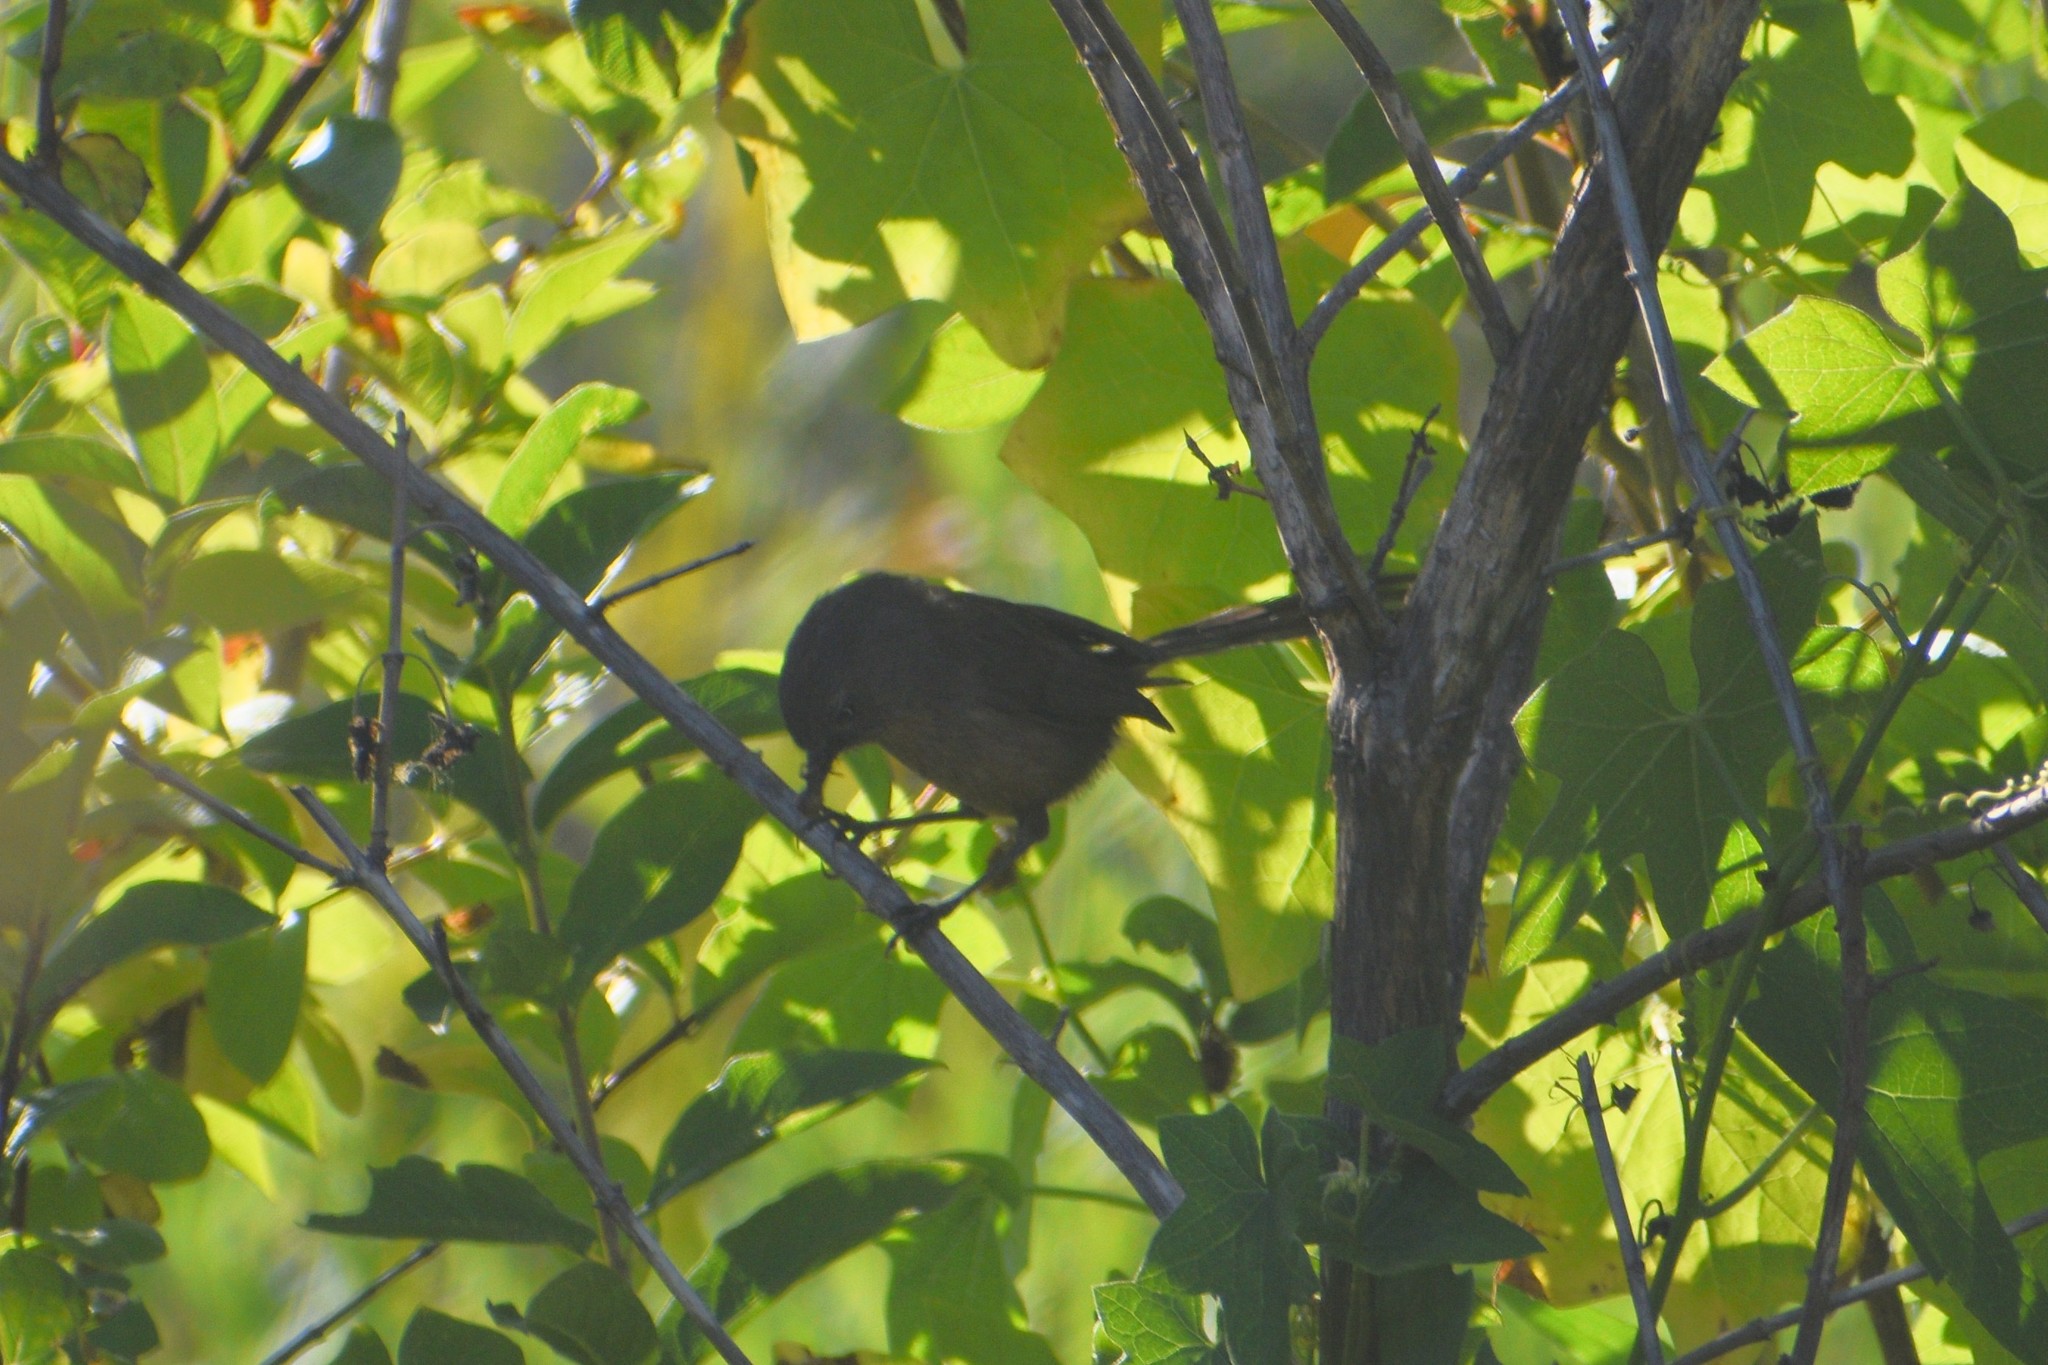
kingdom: Animalia
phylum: Chordata
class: Aves
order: Passeriformes
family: Sylviidae
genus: Chamaea
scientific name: Chamaea fasciata
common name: Wrentit
